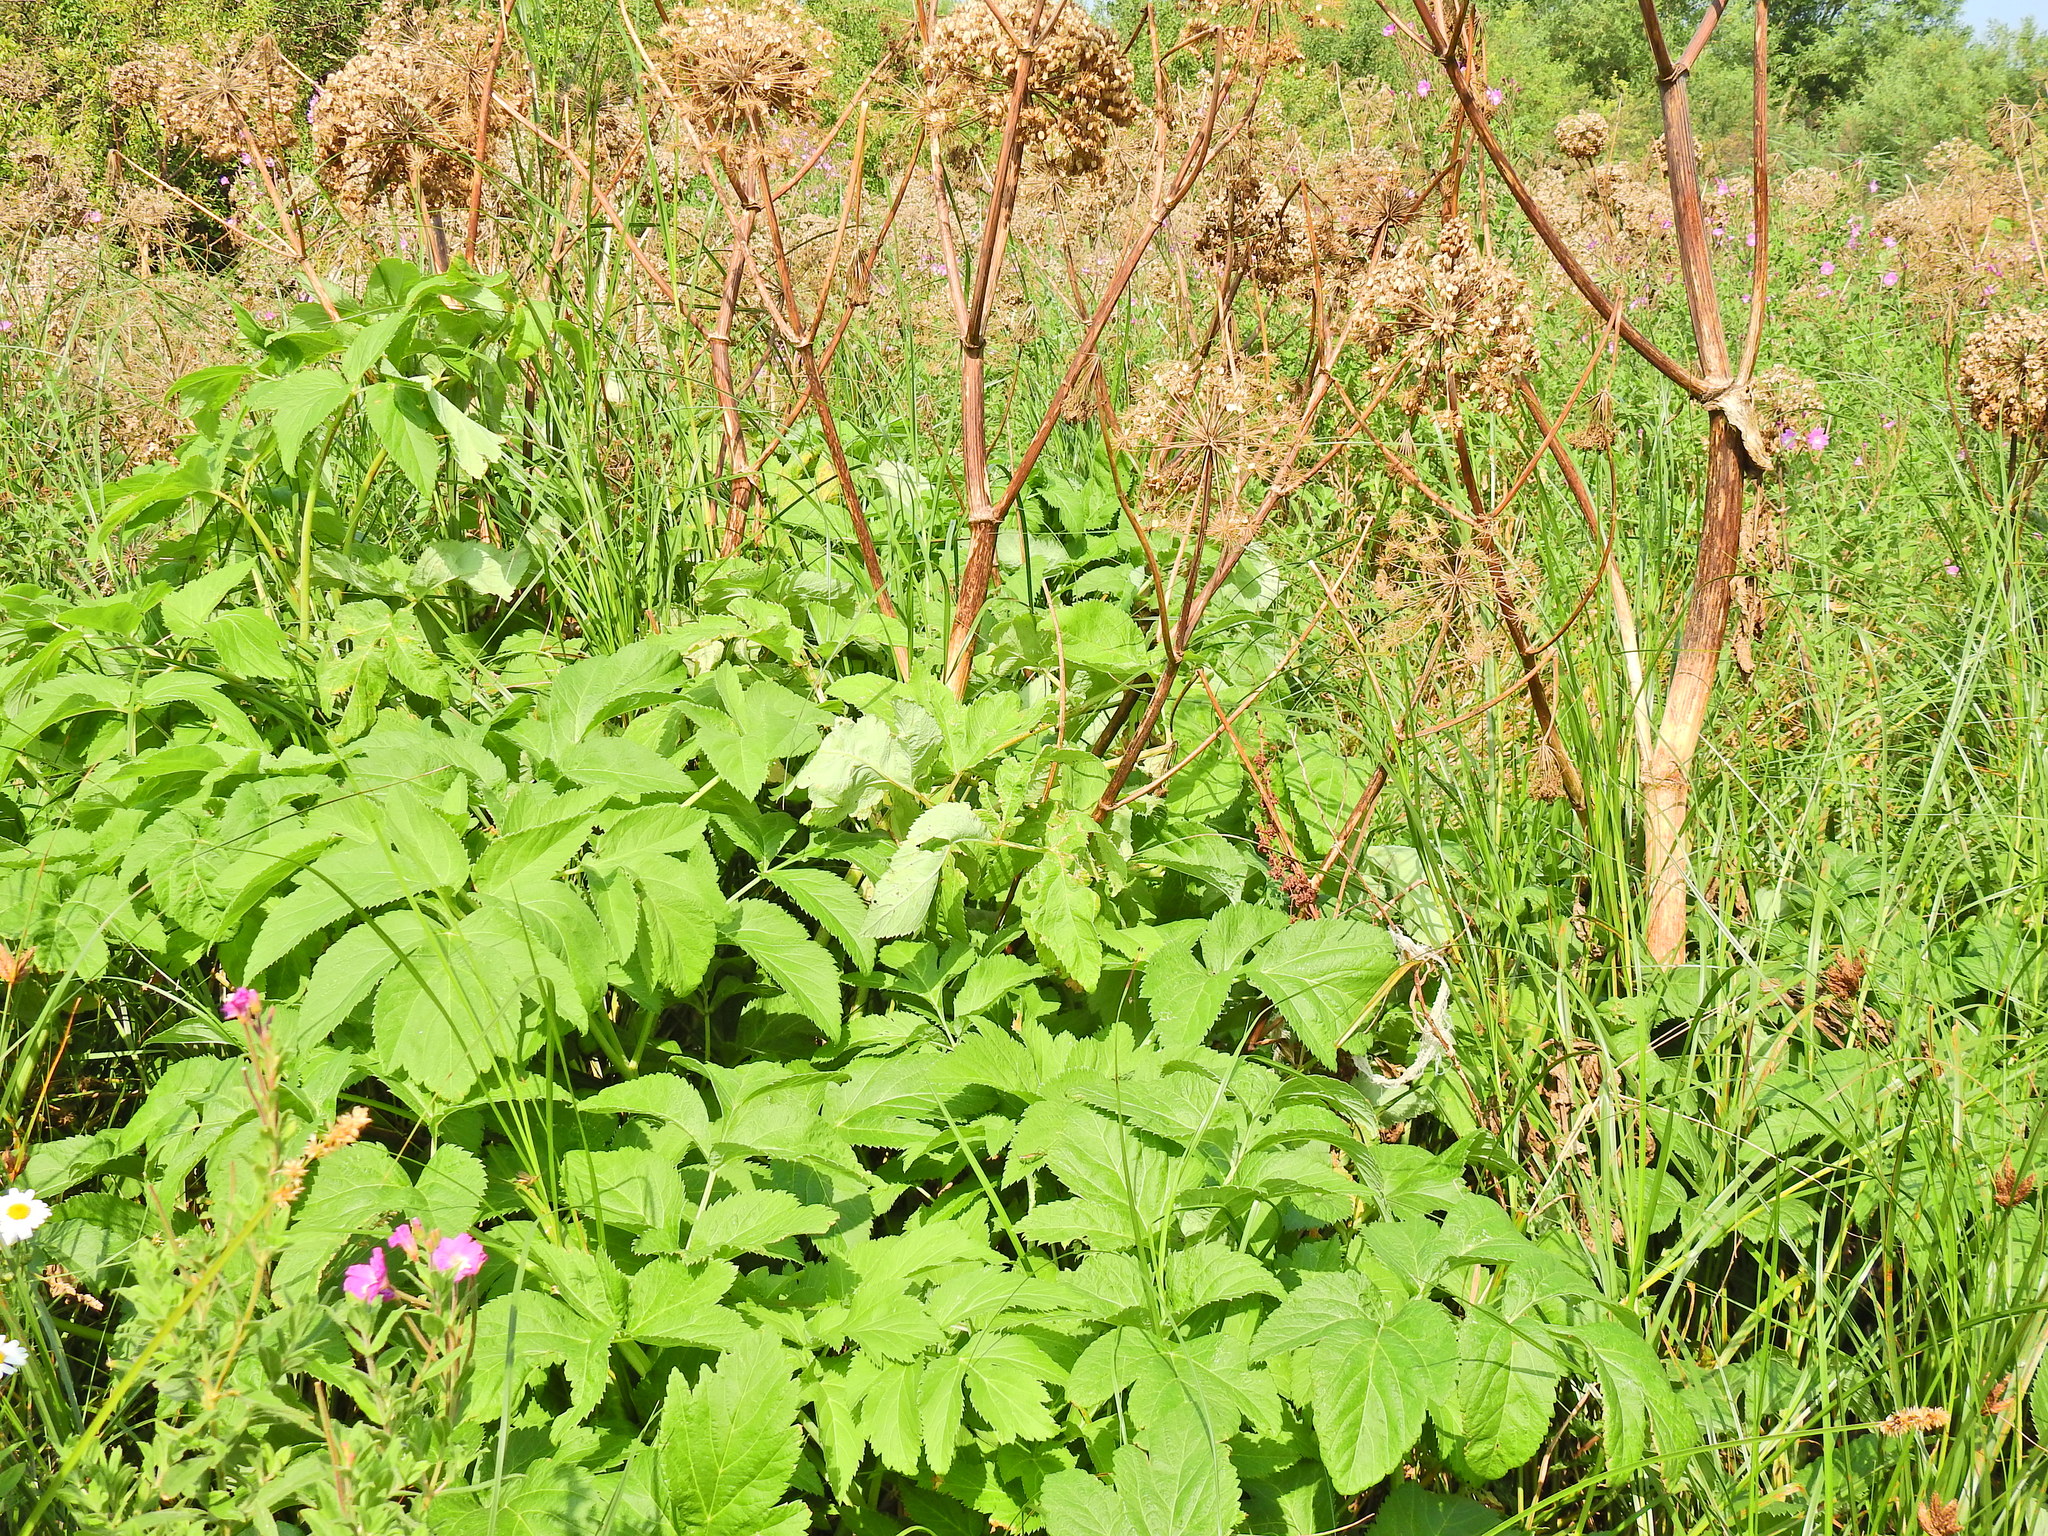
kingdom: Plantae
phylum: Tracheophyta
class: Magnoliopsida
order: Apiales
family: Apiaceae
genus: Angelica
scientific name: Angelica archangelica
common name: Garden angelica
